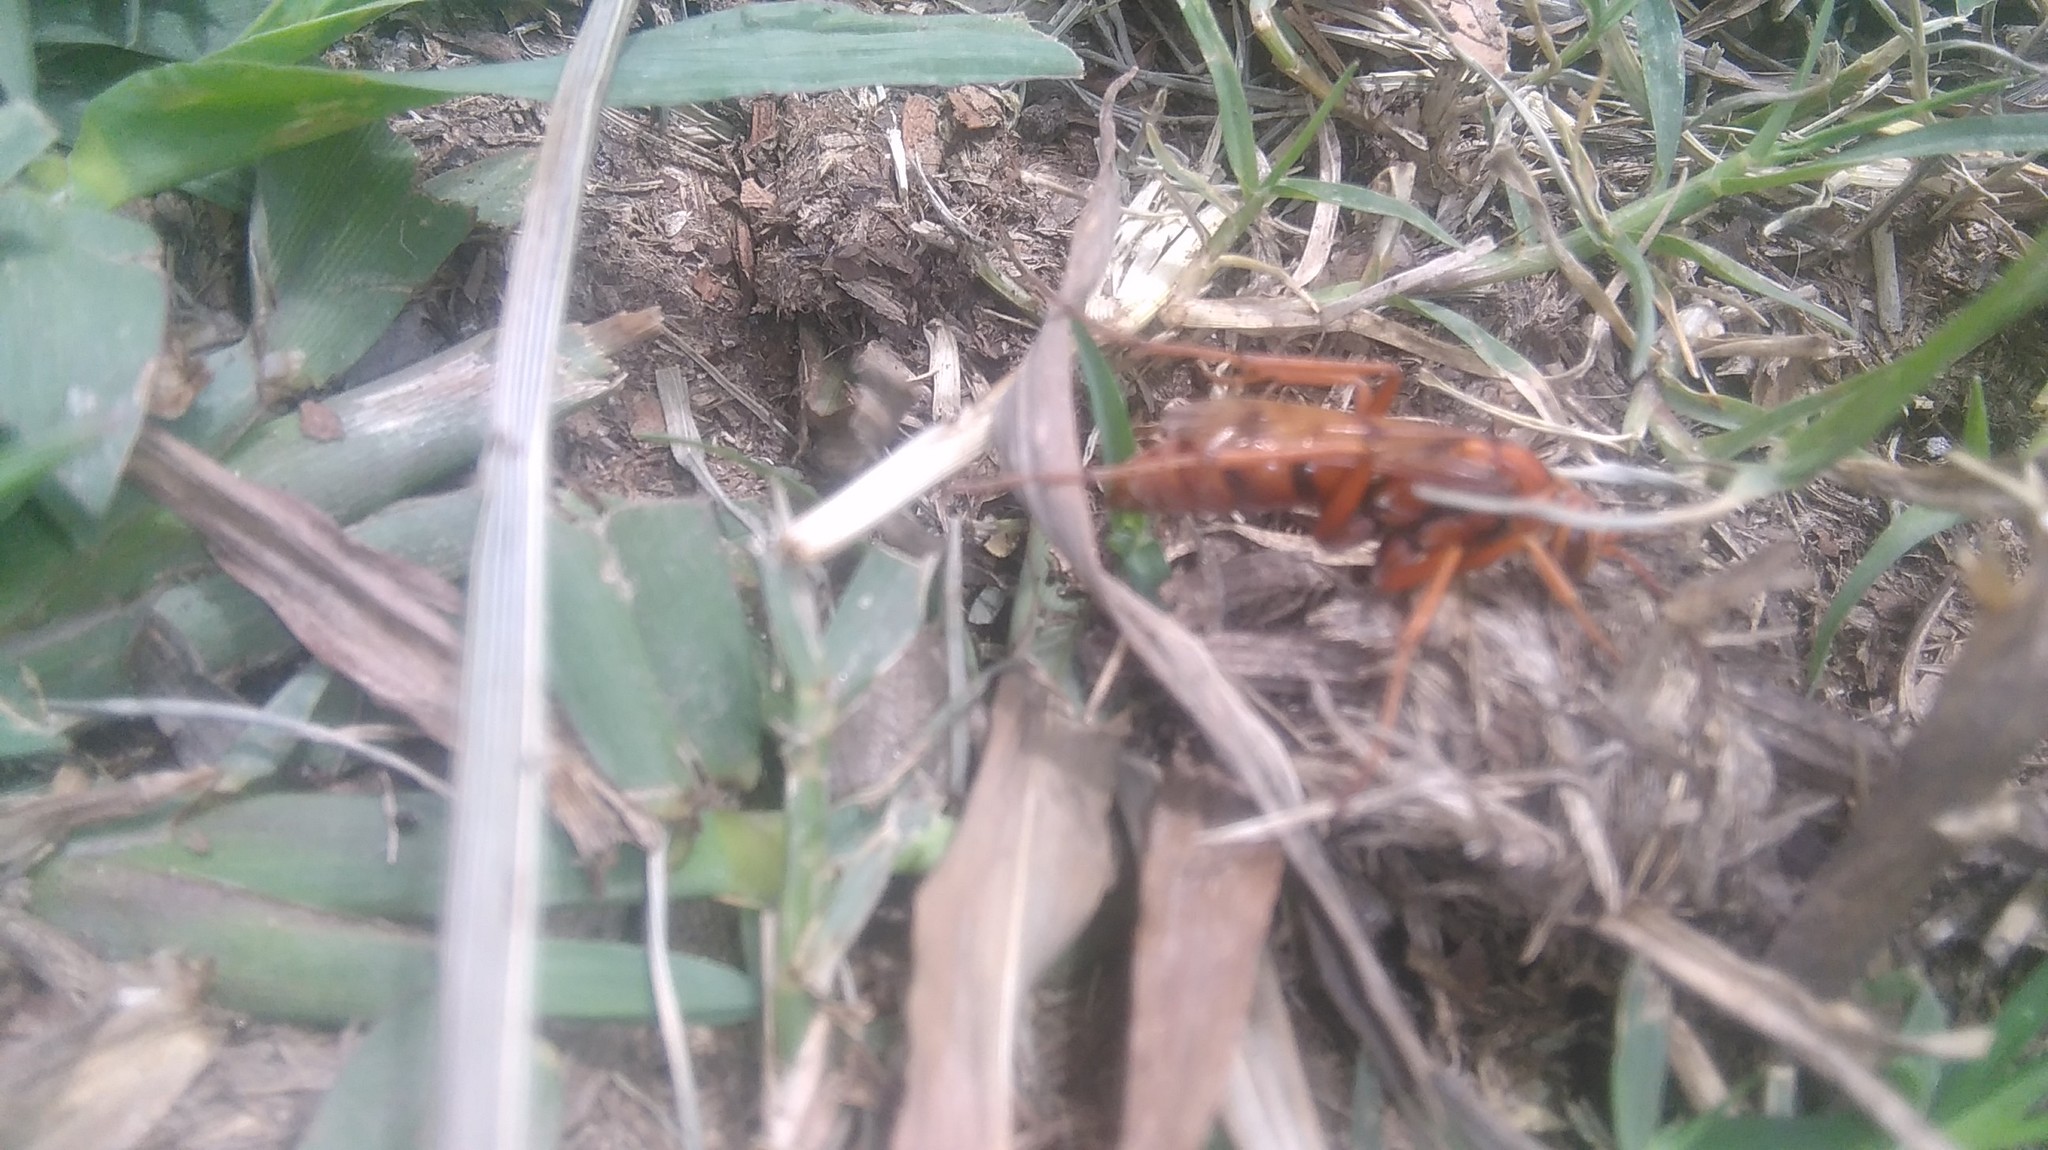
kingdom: Animalia
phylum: Arthropoda
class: Insecta
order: Hymenoptera
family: Pompilidae
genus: Tachypompilus
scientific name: Tachypompilus mendozae
